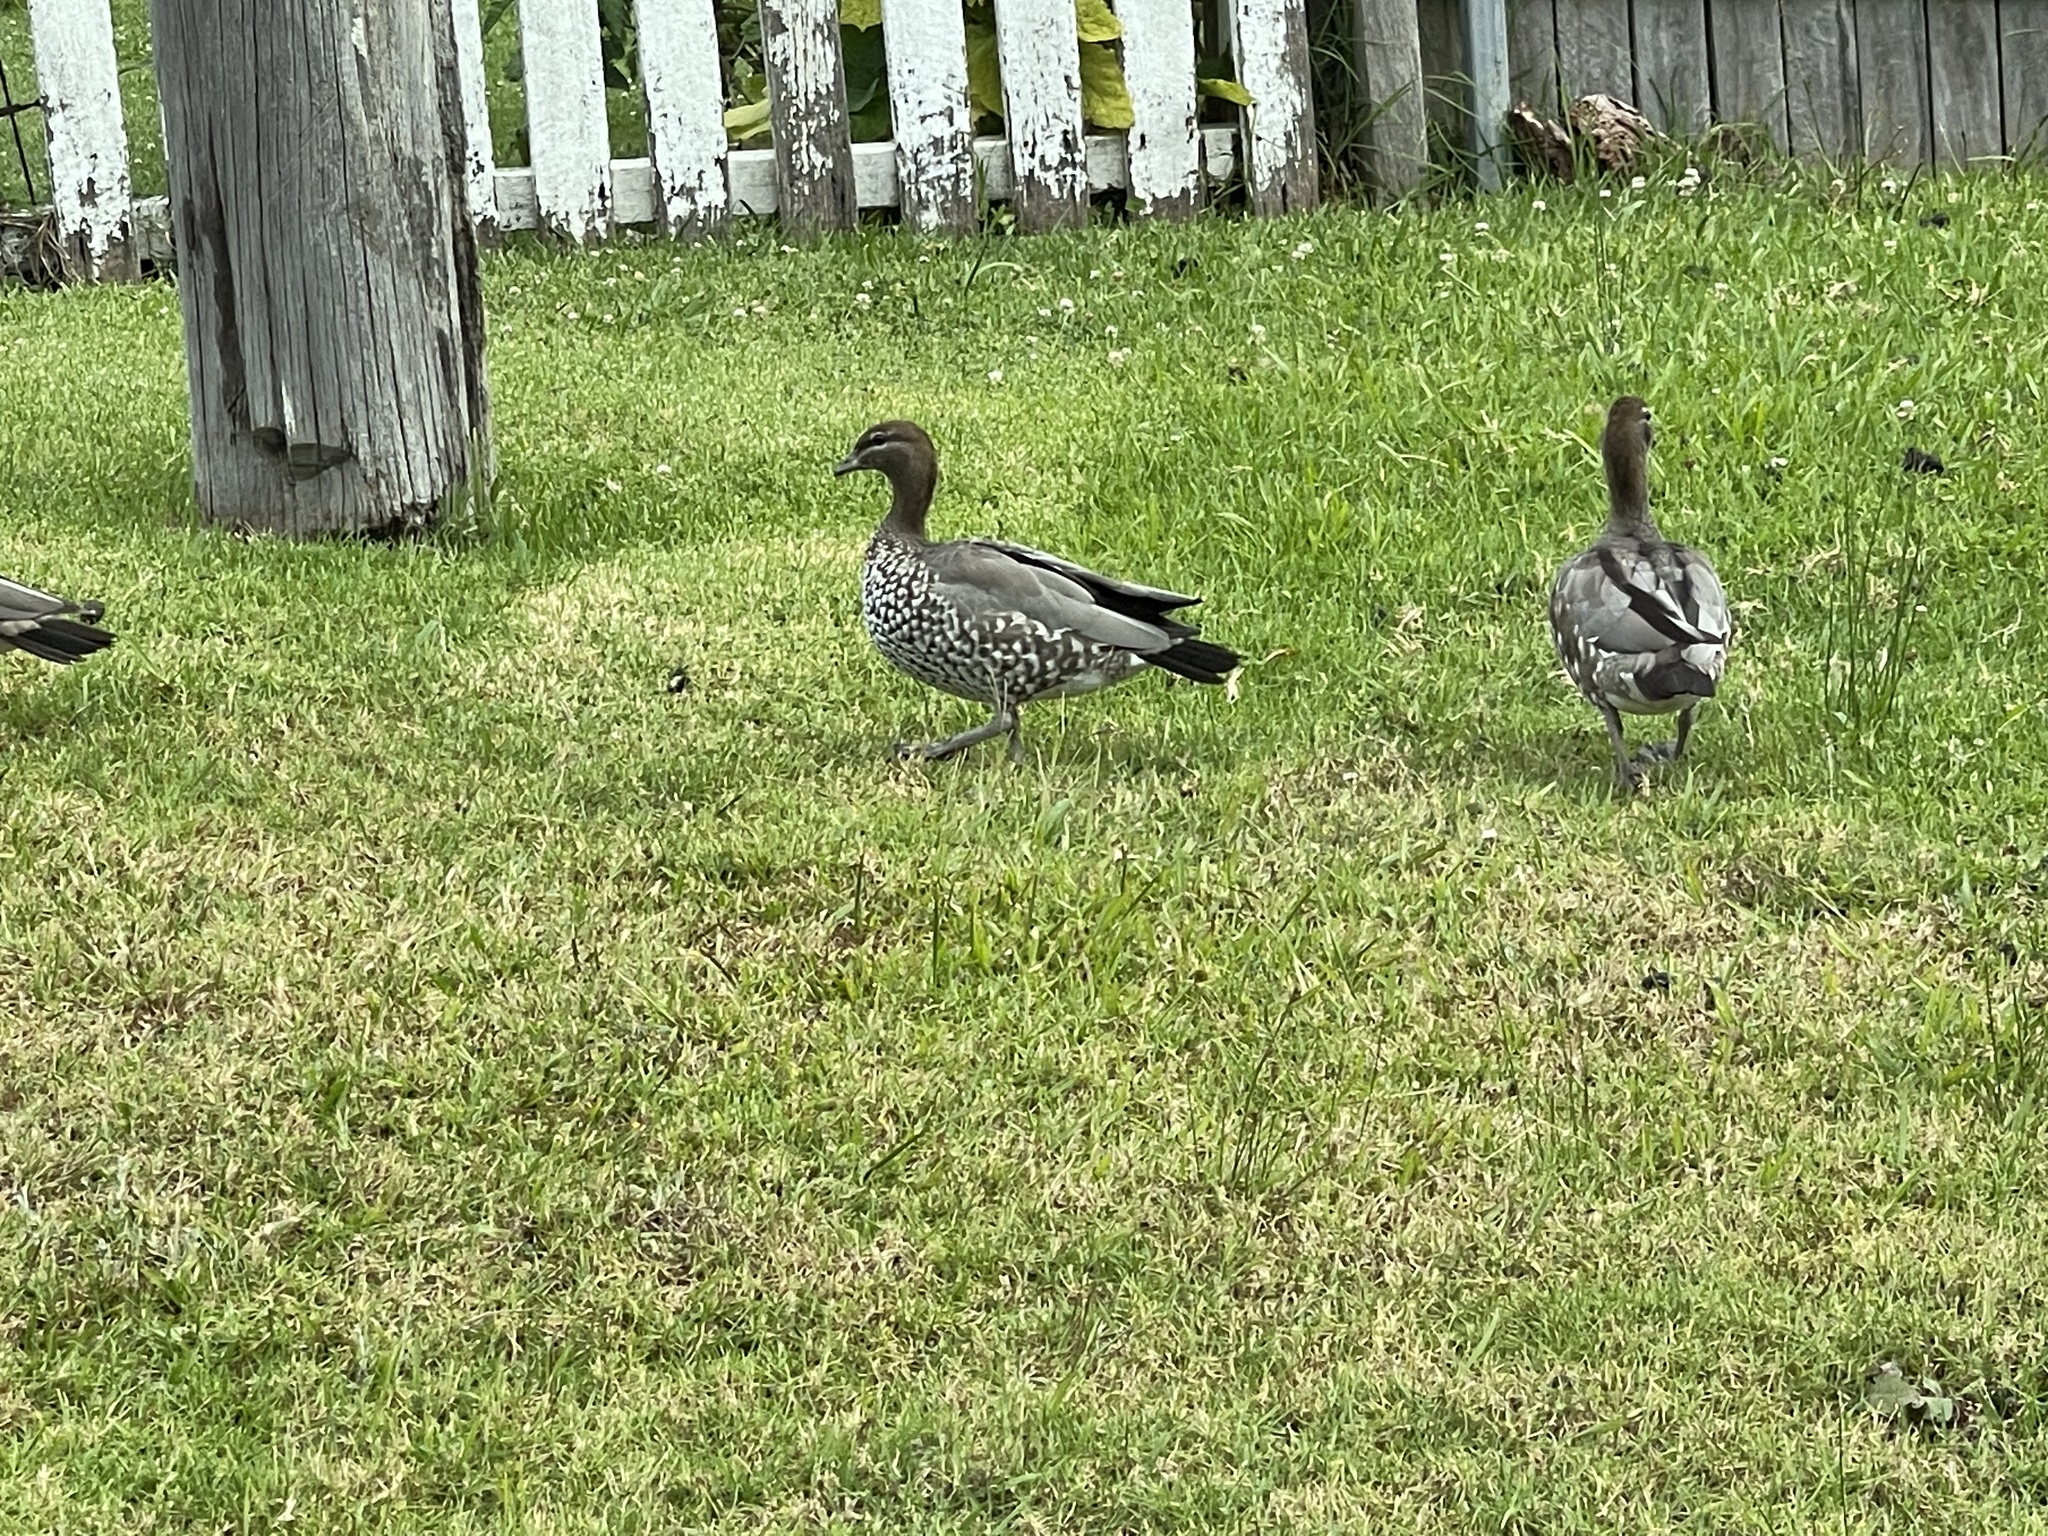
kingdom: Animalia
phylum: Chordata
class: Aves
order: Anseriformes
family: Anatidae
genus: Chenonetta
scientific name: Chenonetta jubata
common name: Maned duck
